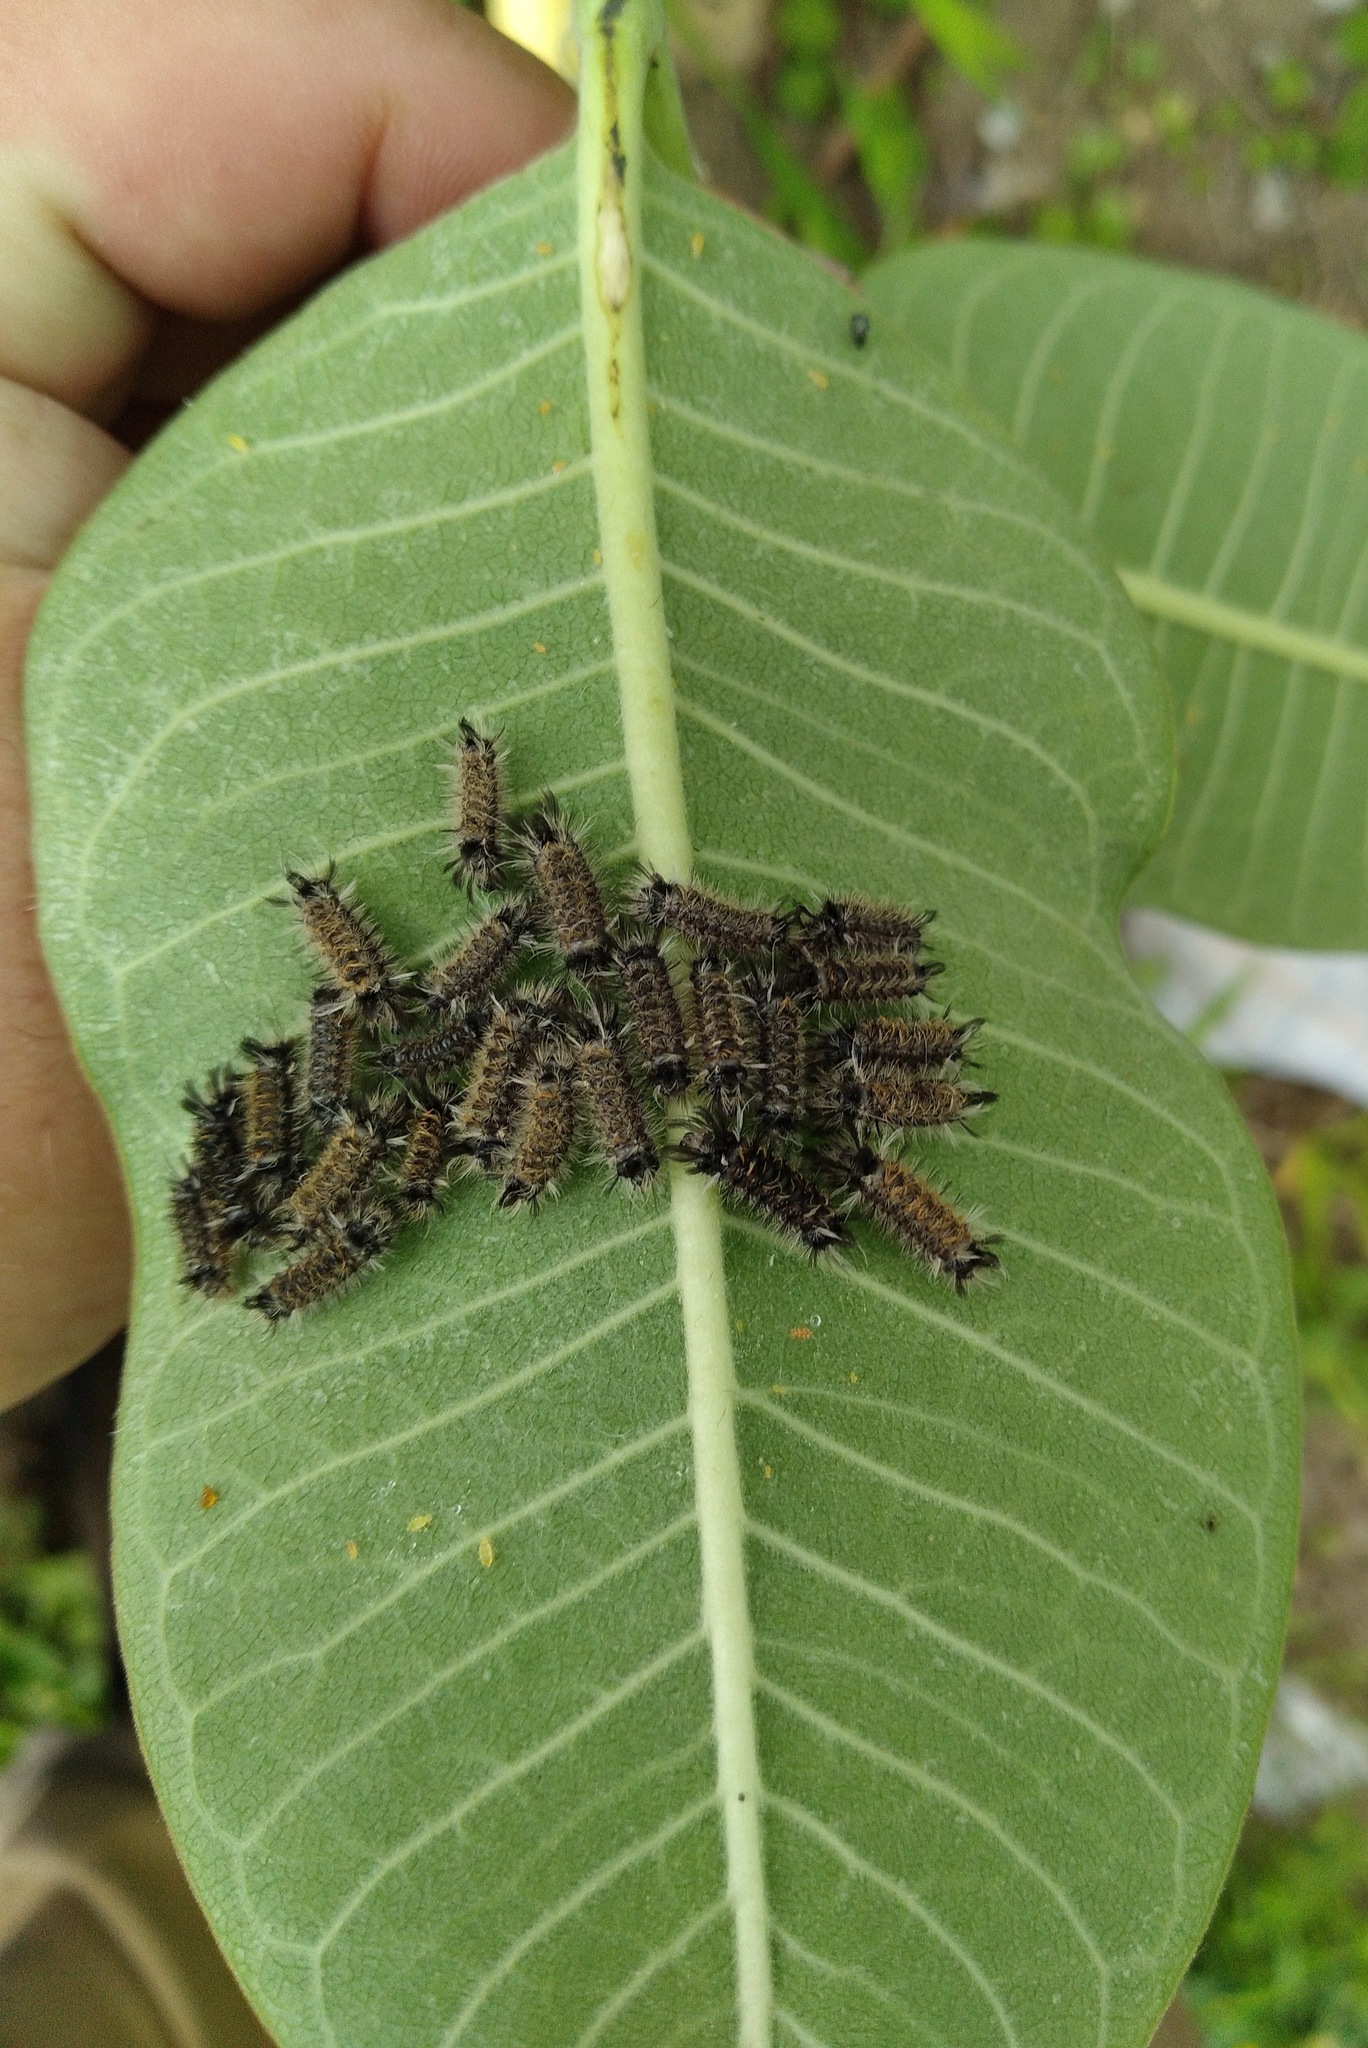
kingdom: Animalia
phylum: Arthropoda
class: Insecta
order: Lepidoptera
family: Erebidae
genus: Euchaetes
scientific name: Euchaetes egle
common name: Milkweed tussock moth
